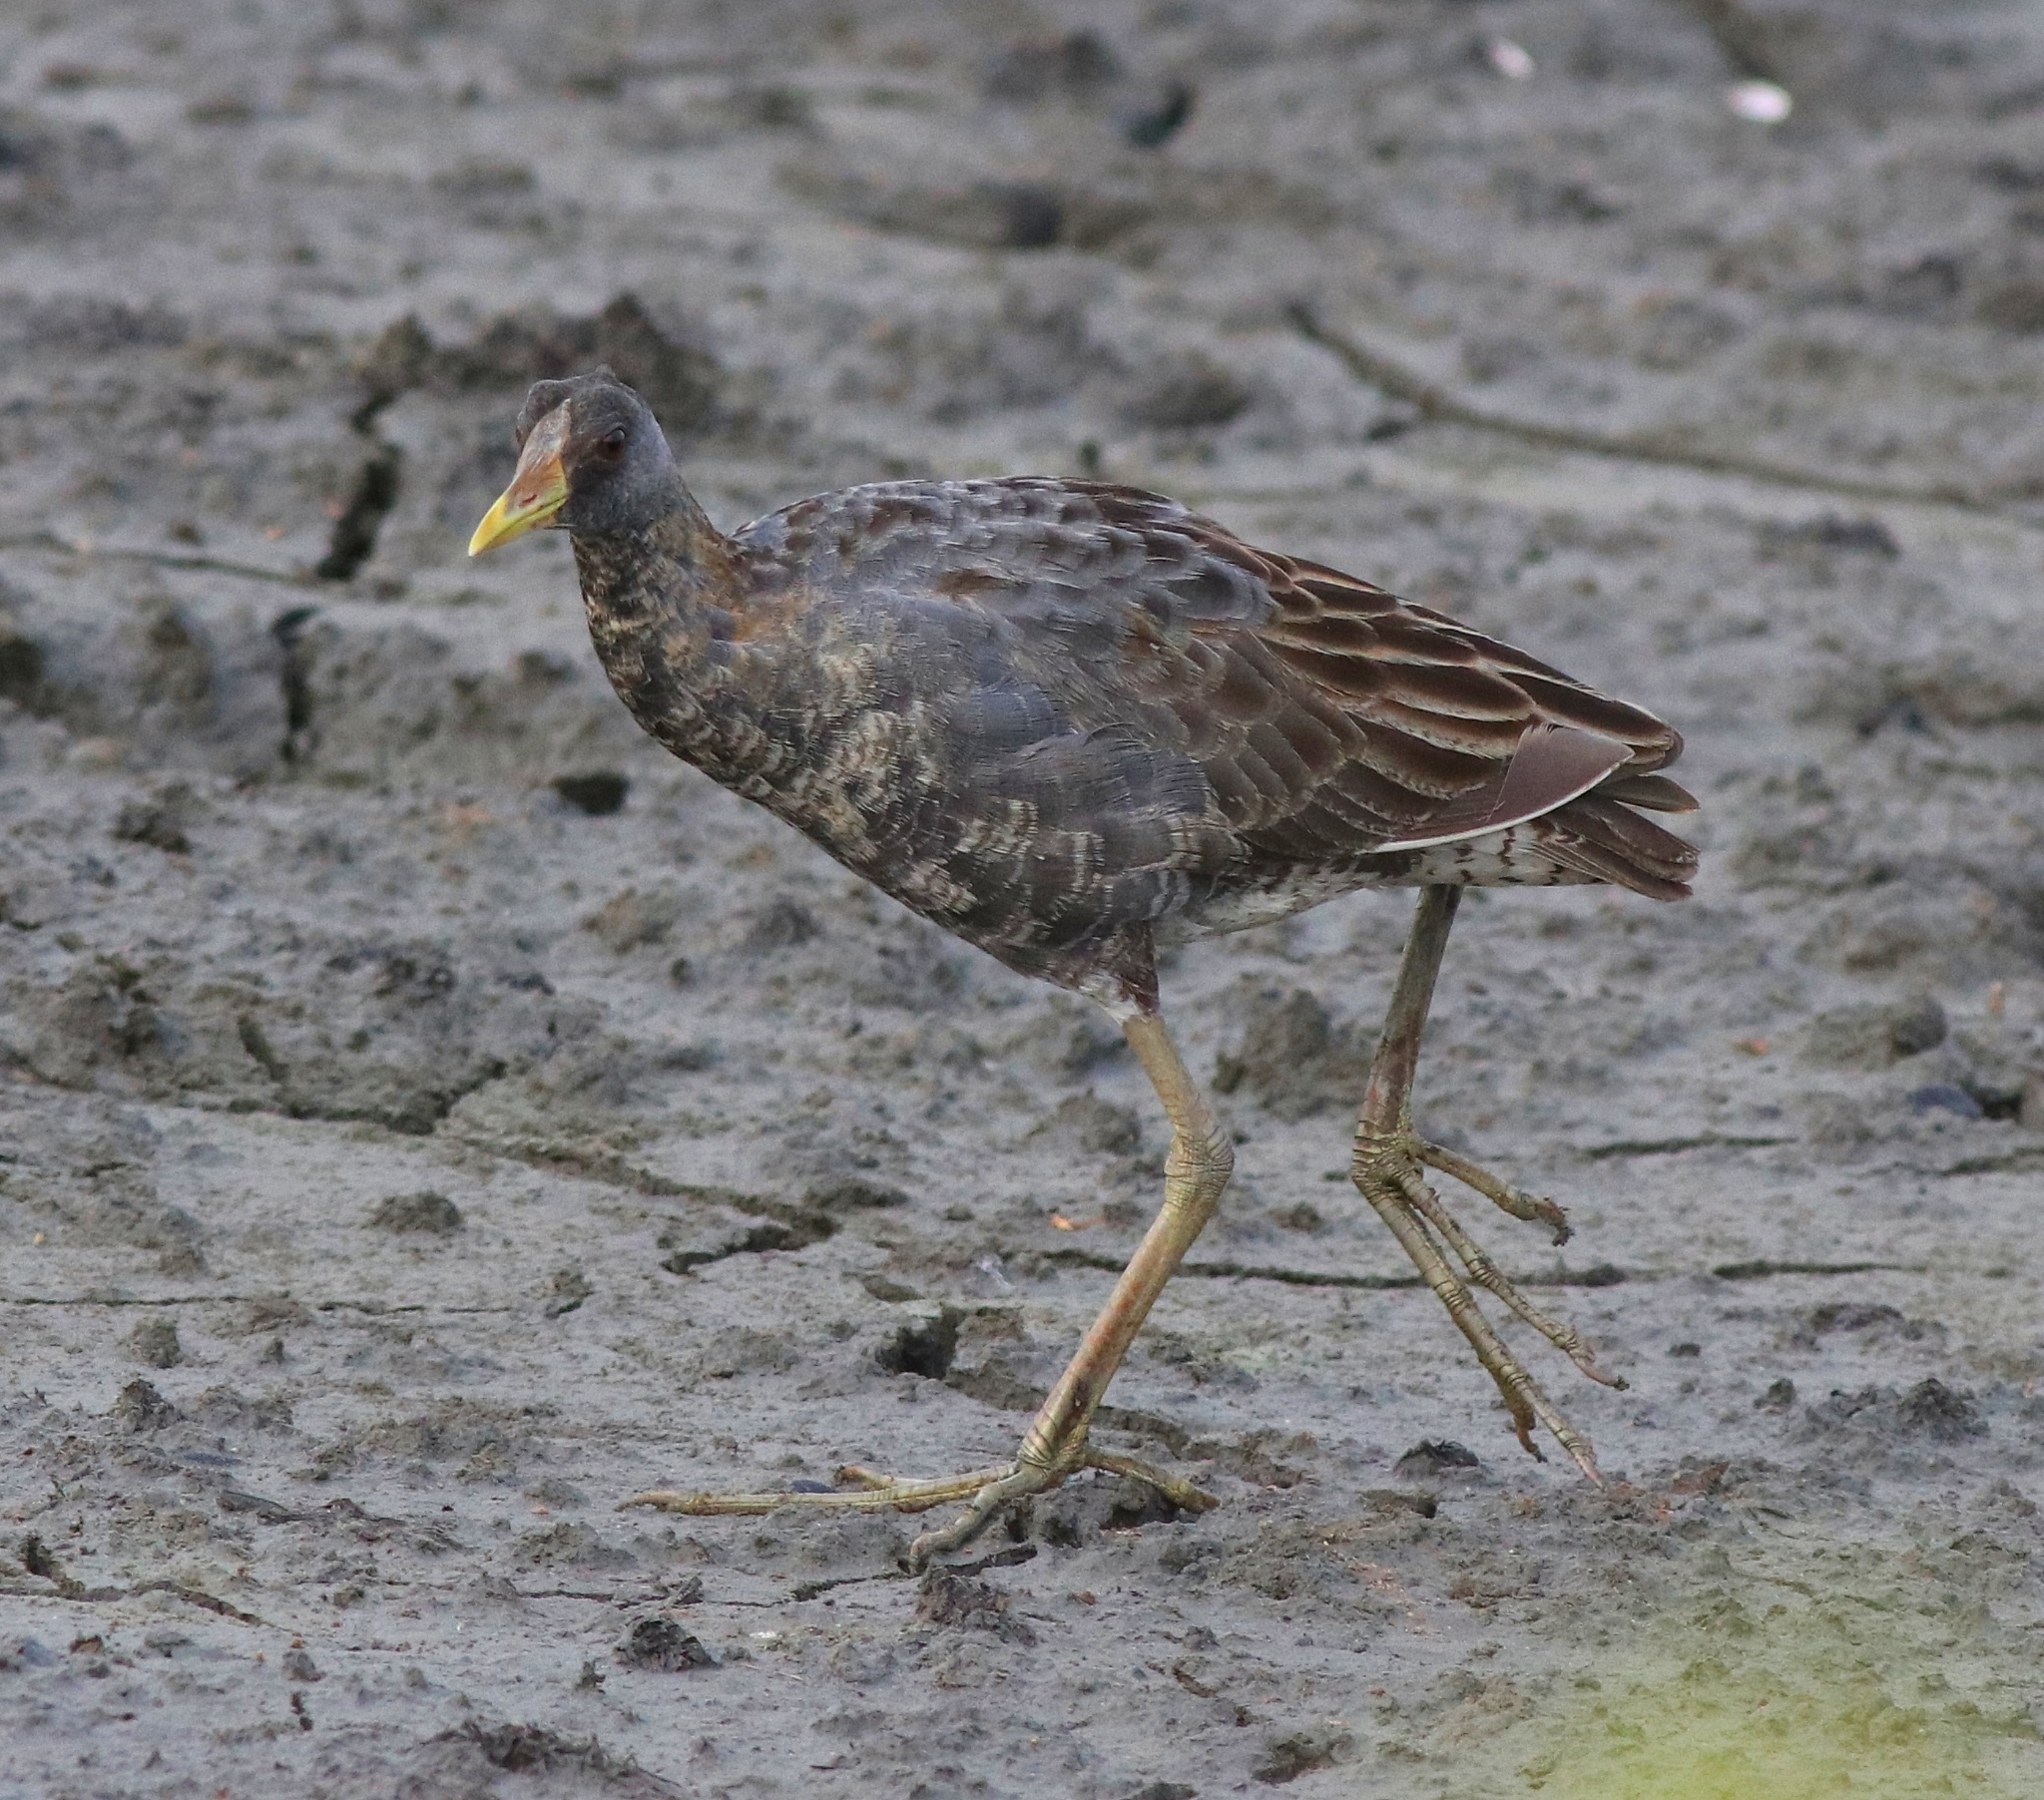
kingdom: Animalia
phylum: Chordata
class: Aves
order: Gruiformes
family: Rallidae
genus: Gallicrex
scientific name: Gallicrex cinerea
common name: Watercock
